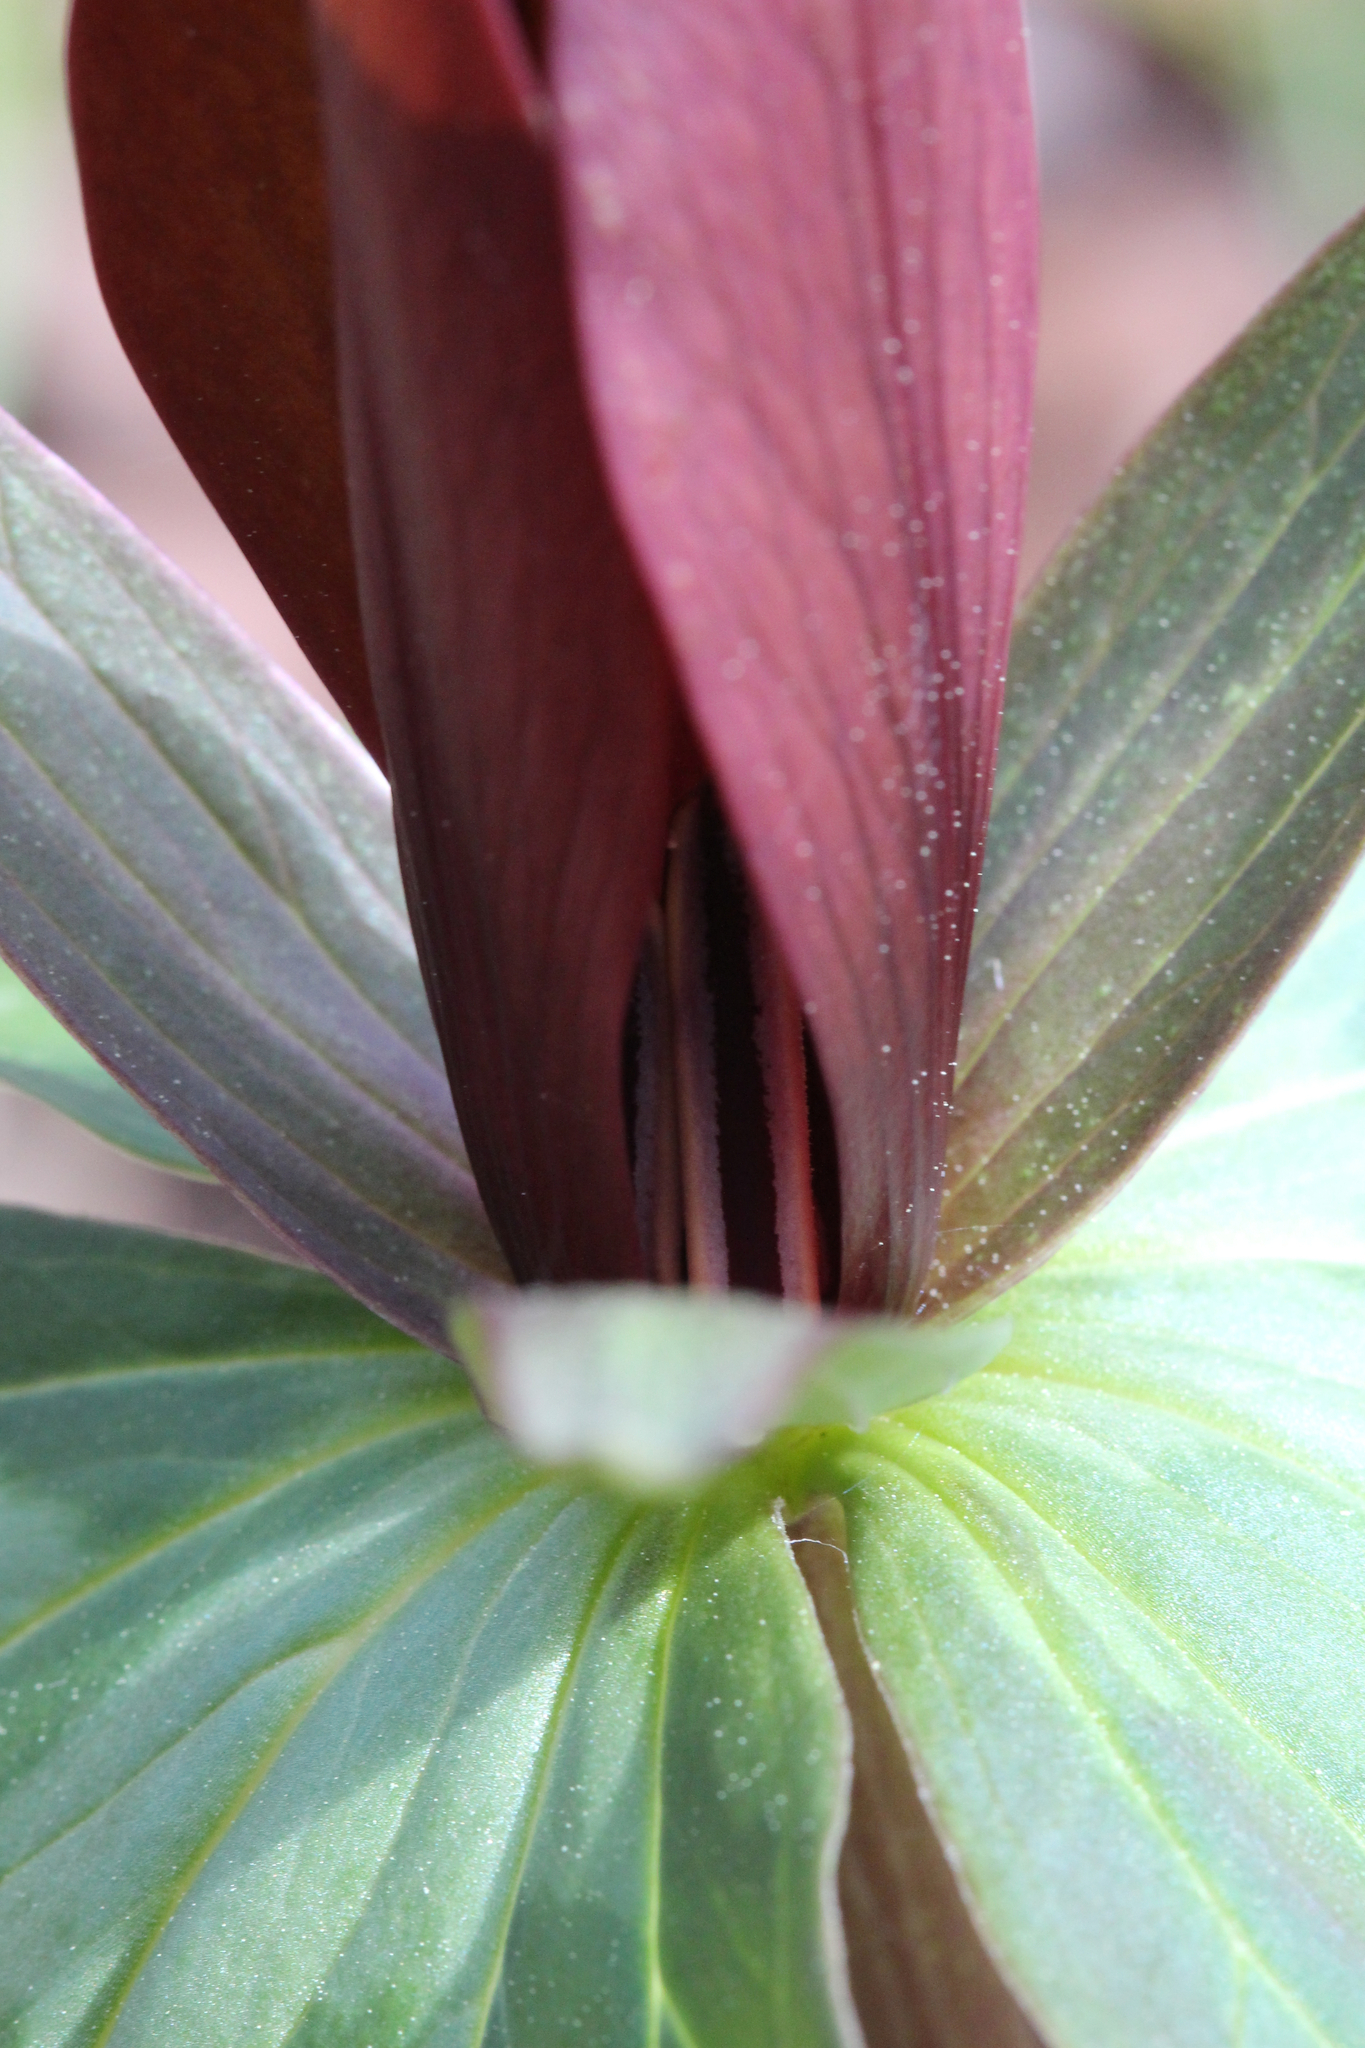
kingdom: Plantae
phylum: Tracheophyta
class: Liliopsida
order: Liliales
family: Melanthiaceae
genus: Trillium
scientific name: Trillium cuneatum
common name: Cuneate trillium
